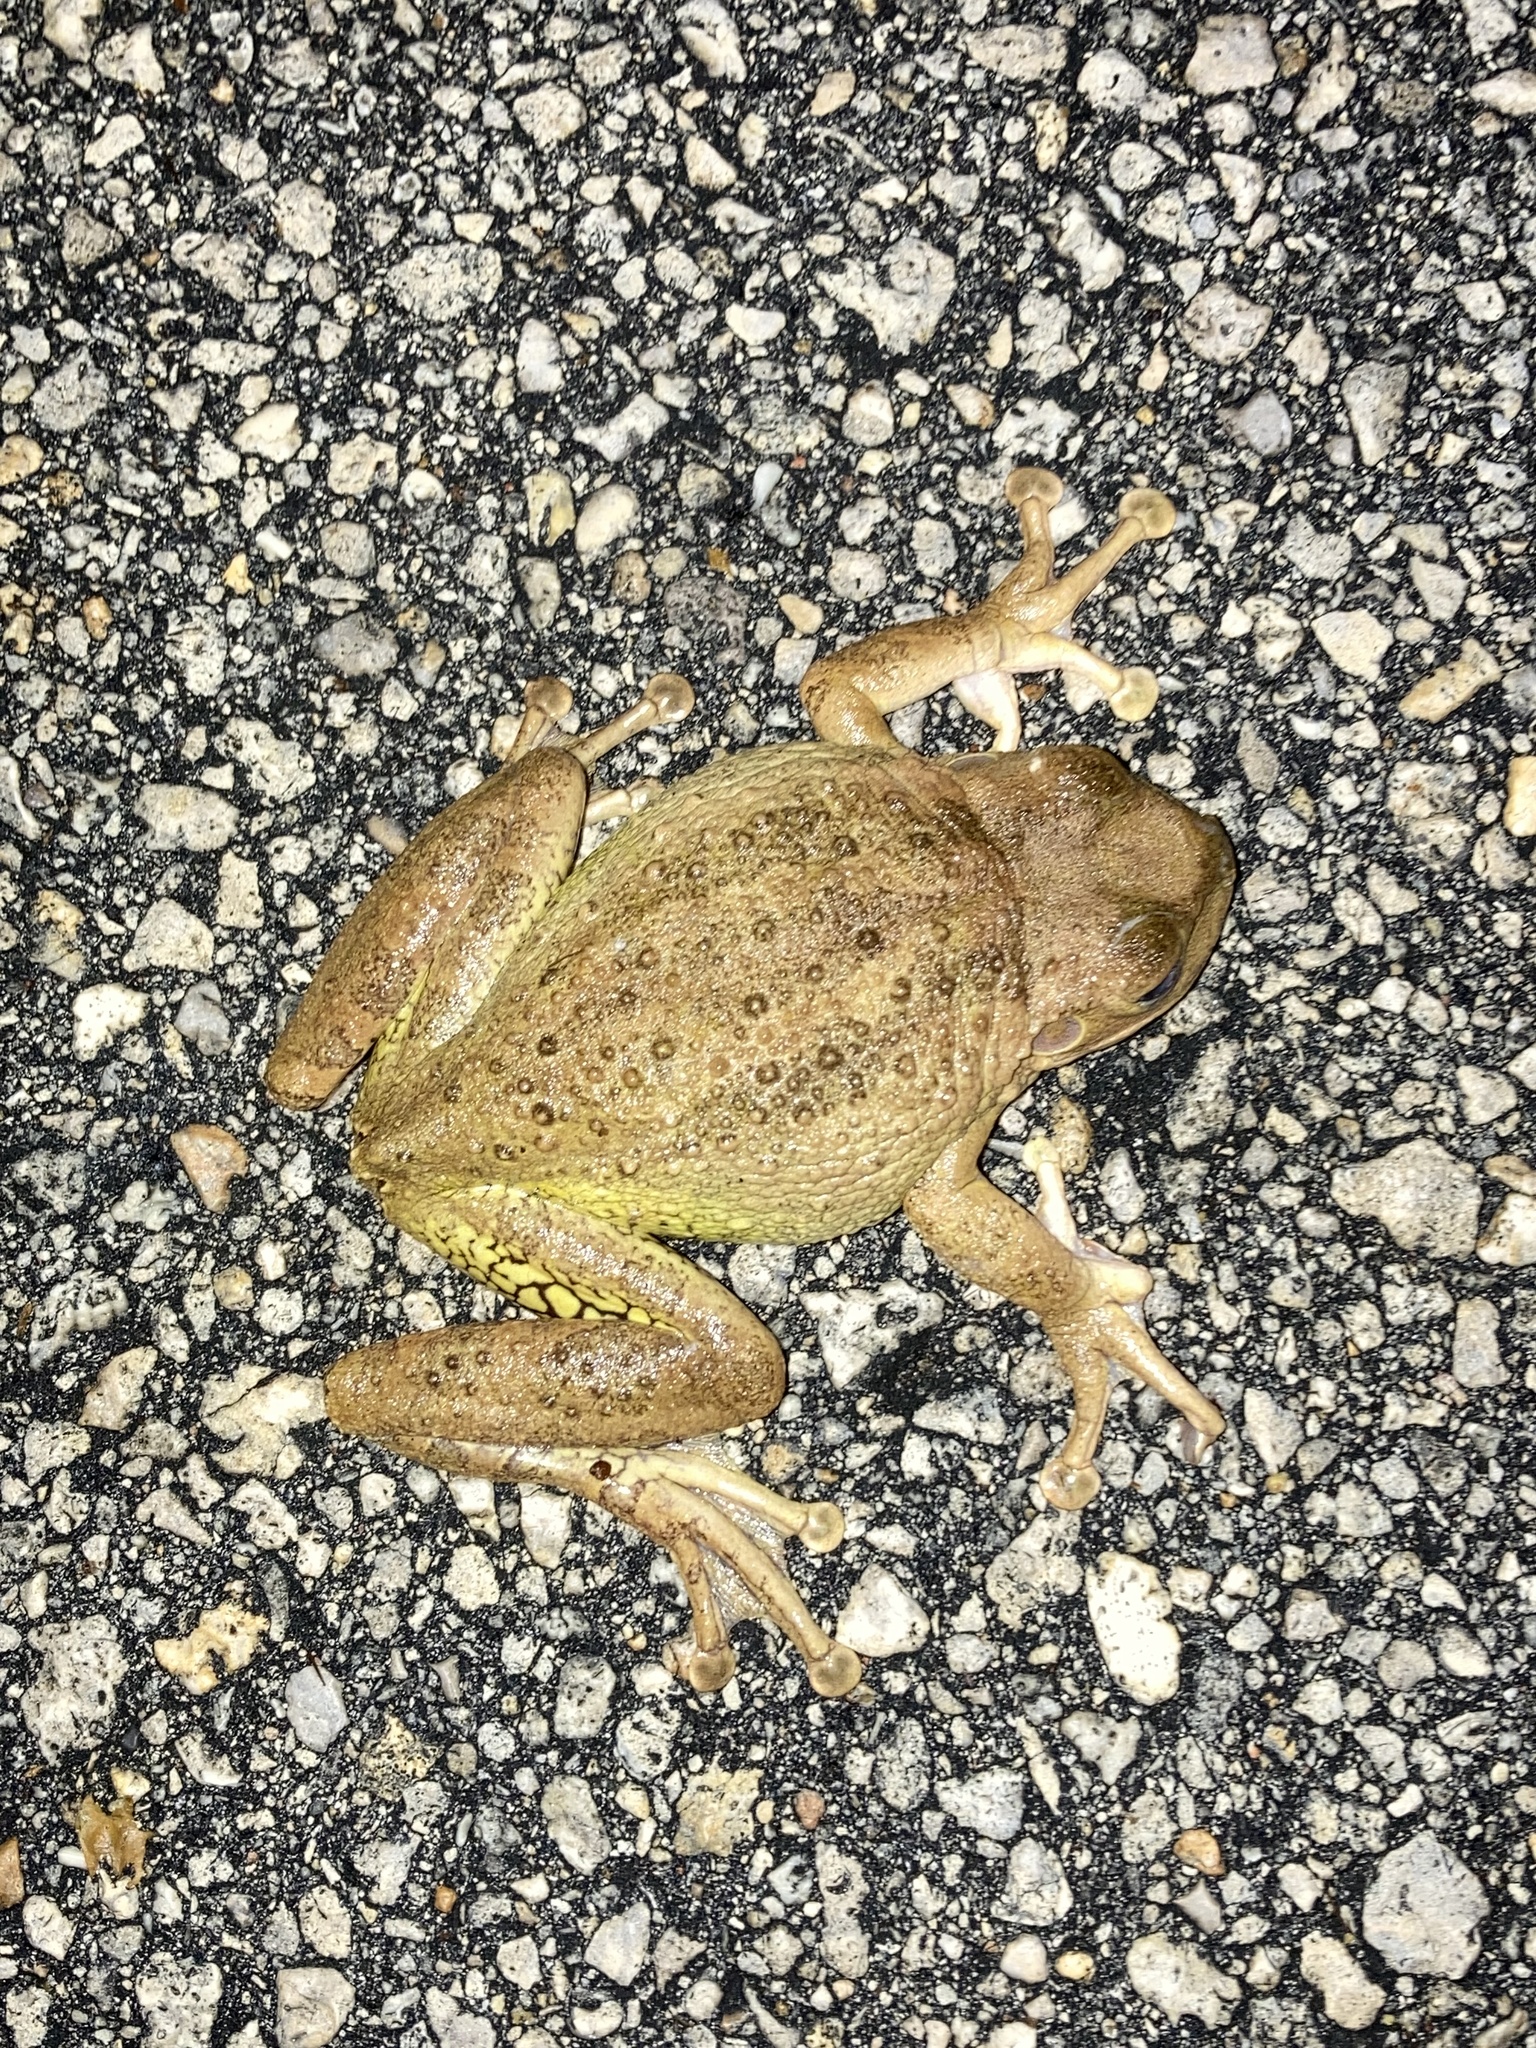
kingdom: Animalia
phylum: Chordata
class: Amphibia
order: Anura
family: Hylidae
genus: Osteopilus
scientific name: Osteopilus septentrionalis
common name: Cuban treefrog
